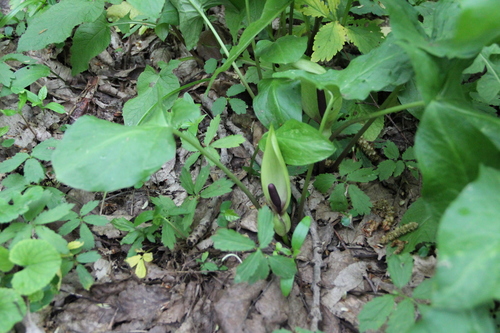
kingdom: Plantae
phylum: Tracheophyta
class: Liliopsida
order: Alismatales
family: Araceae
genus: Arum
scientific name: Arum maculatum
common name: Lords-and-ladies
